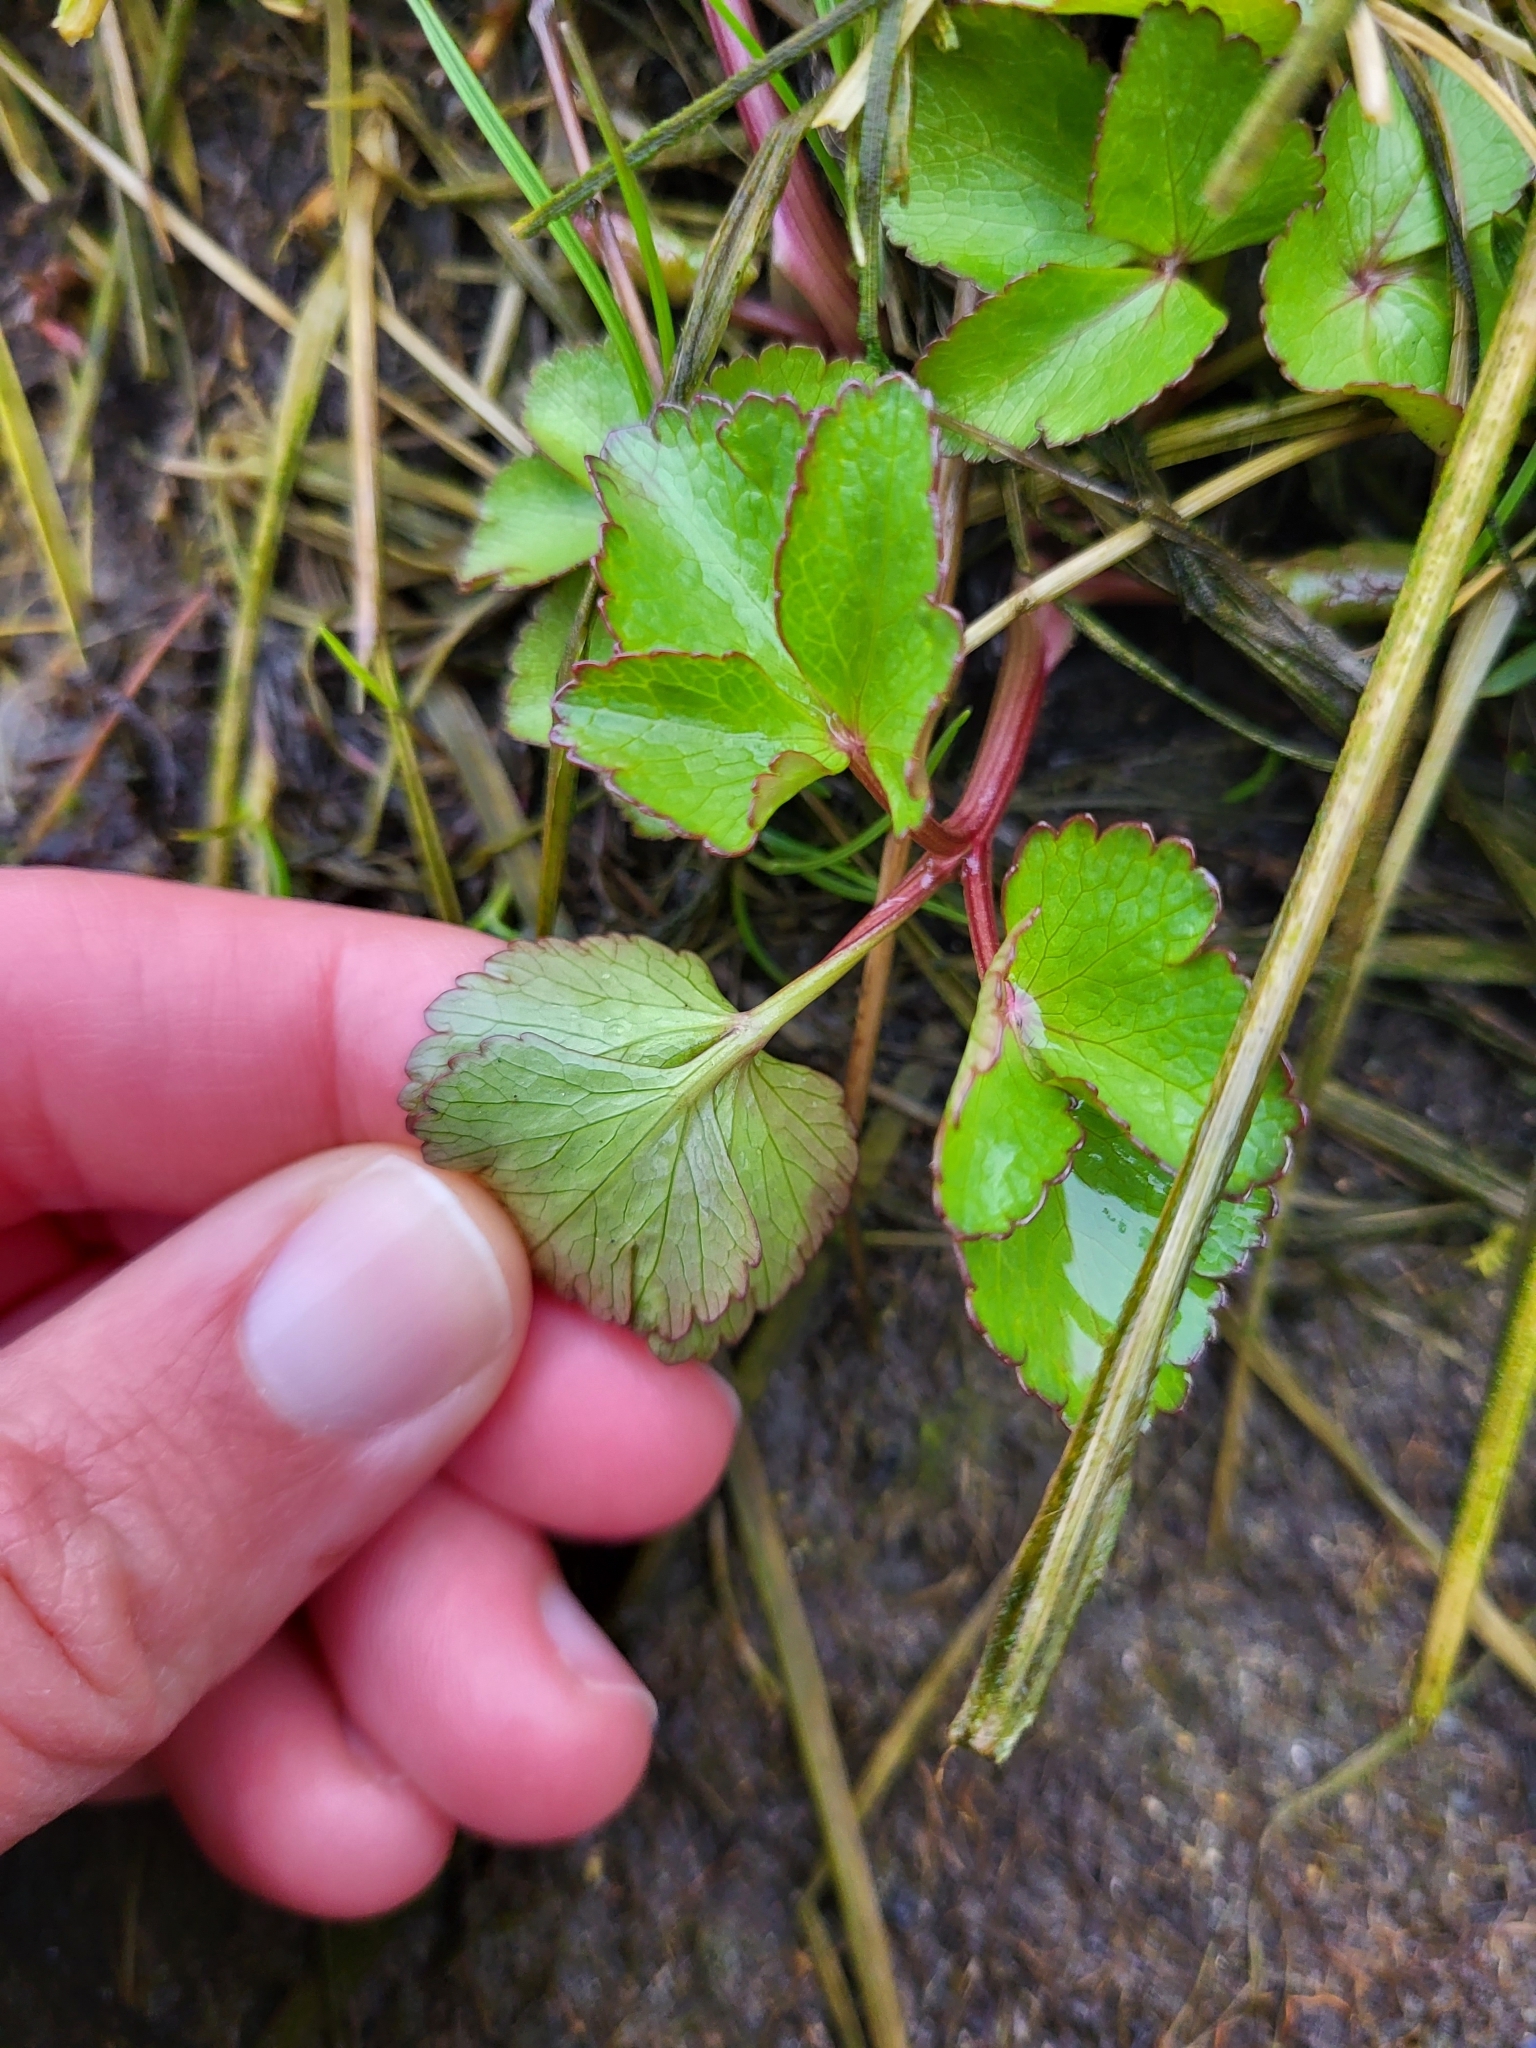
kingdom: Plantae
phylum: Tracheophyta
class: Magnoliopsida
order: Apiales
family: Apiaceae
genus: Ligusticum
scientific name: Ligusticum scothicum
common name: Beach lovage
